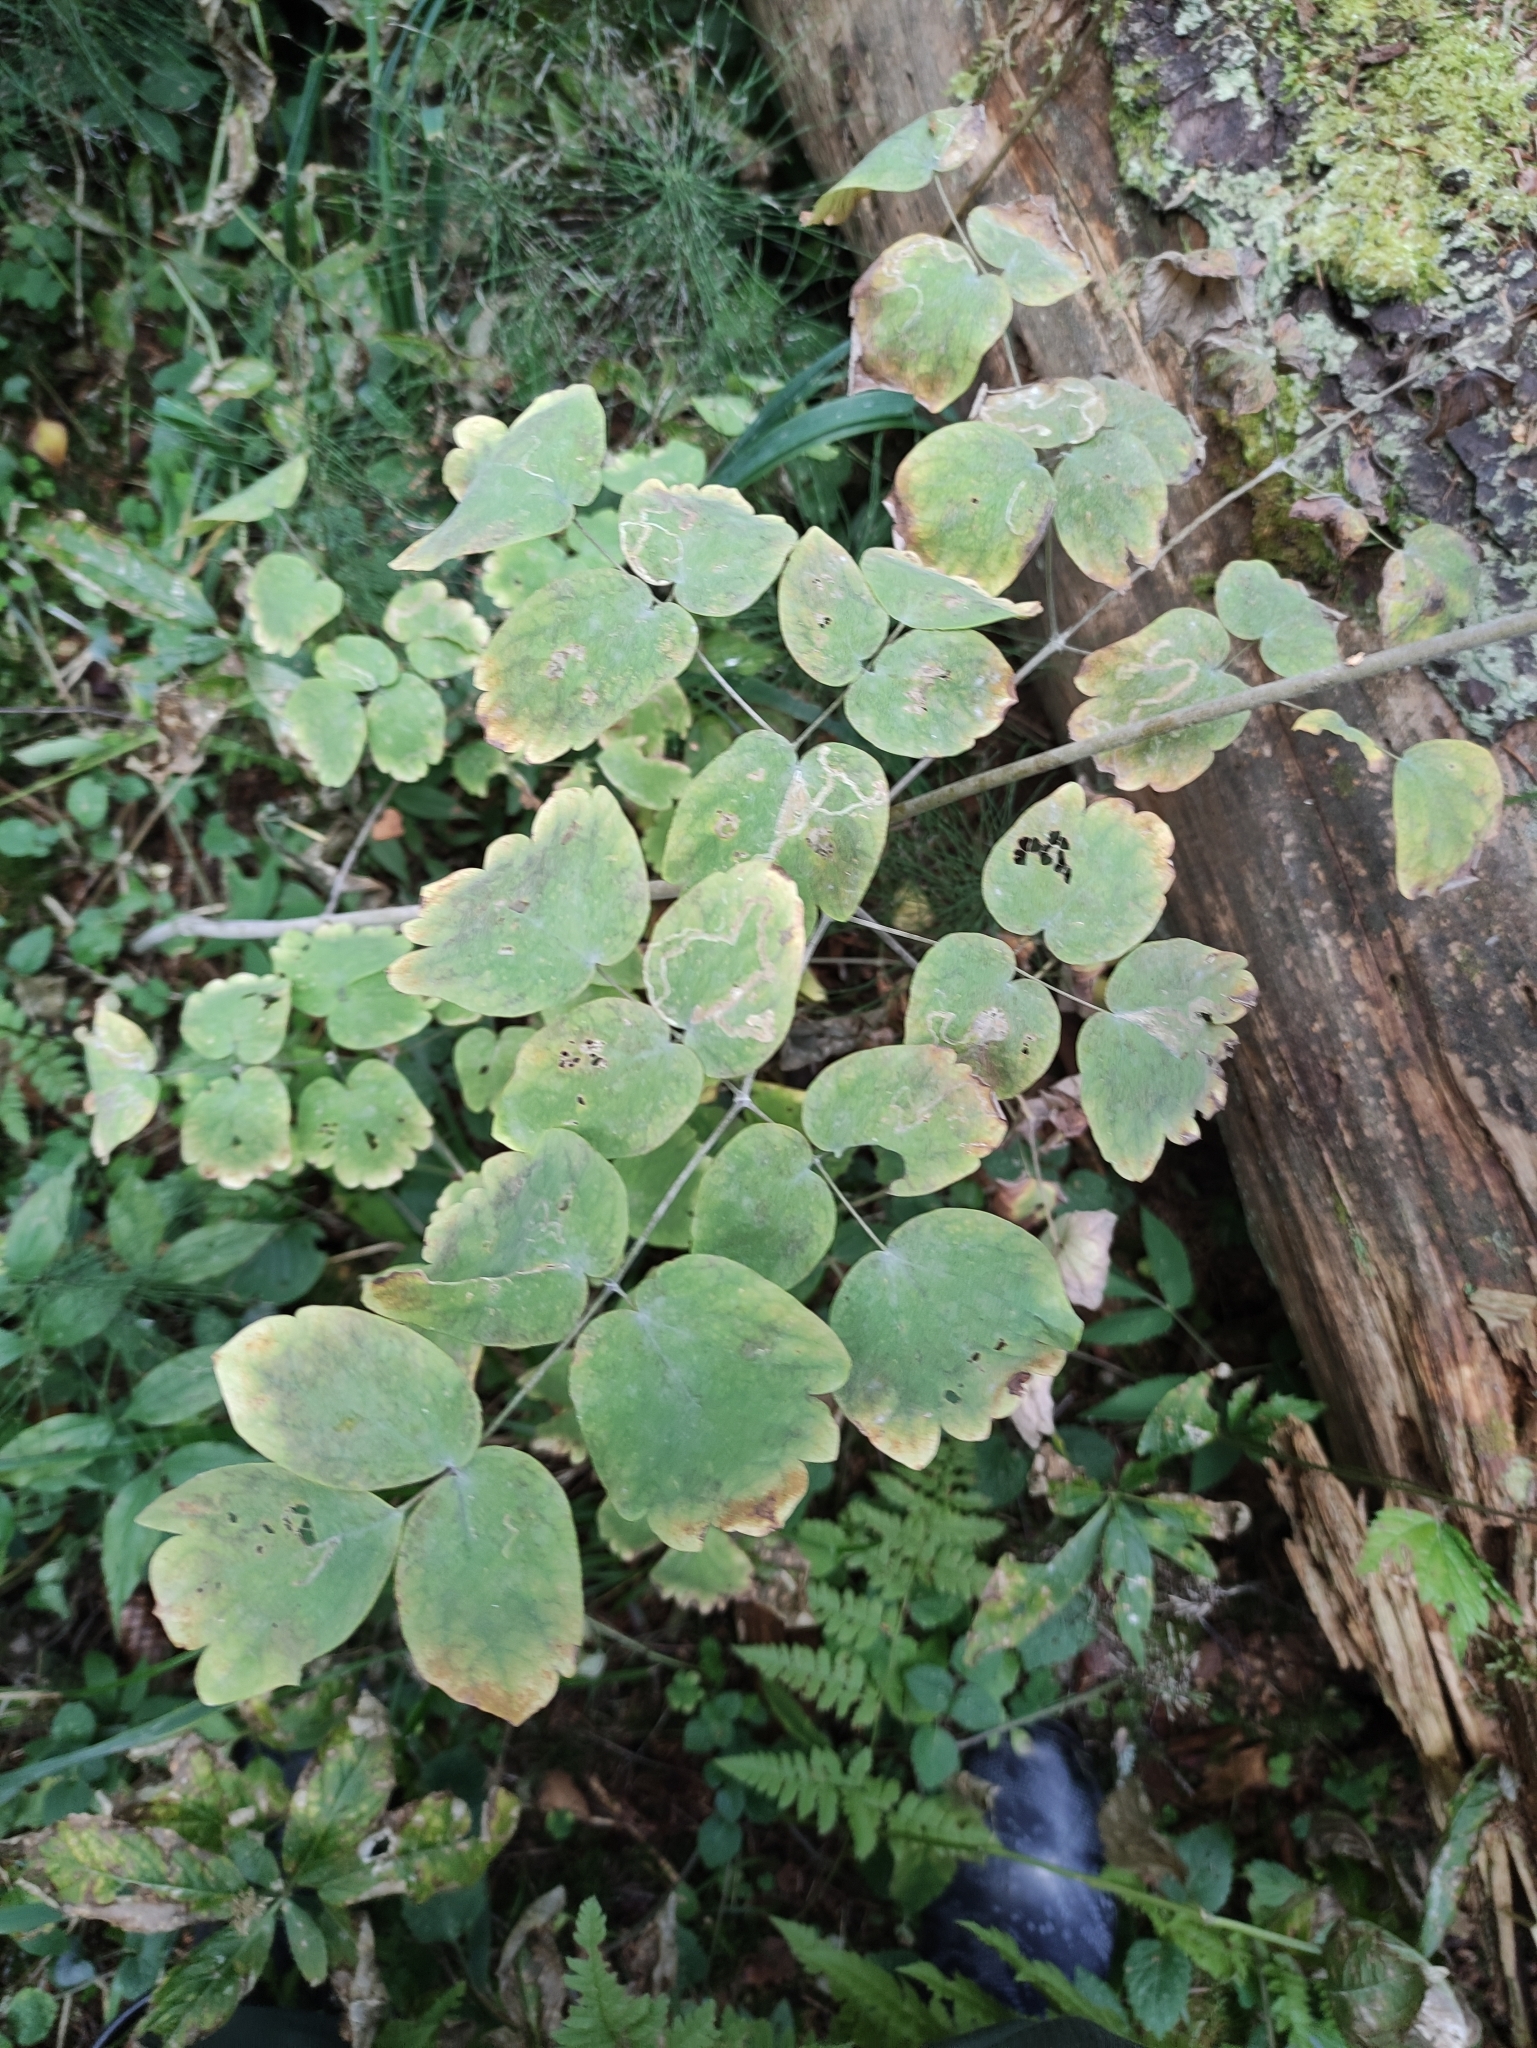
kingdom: Plantae
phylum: Tracheophyta
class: Magnoliopsida
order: Ranunculales
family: Ranunculaceae
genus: Thalictrum
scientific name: Thalictrum aquilegiifolium
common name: French meadow-rue
